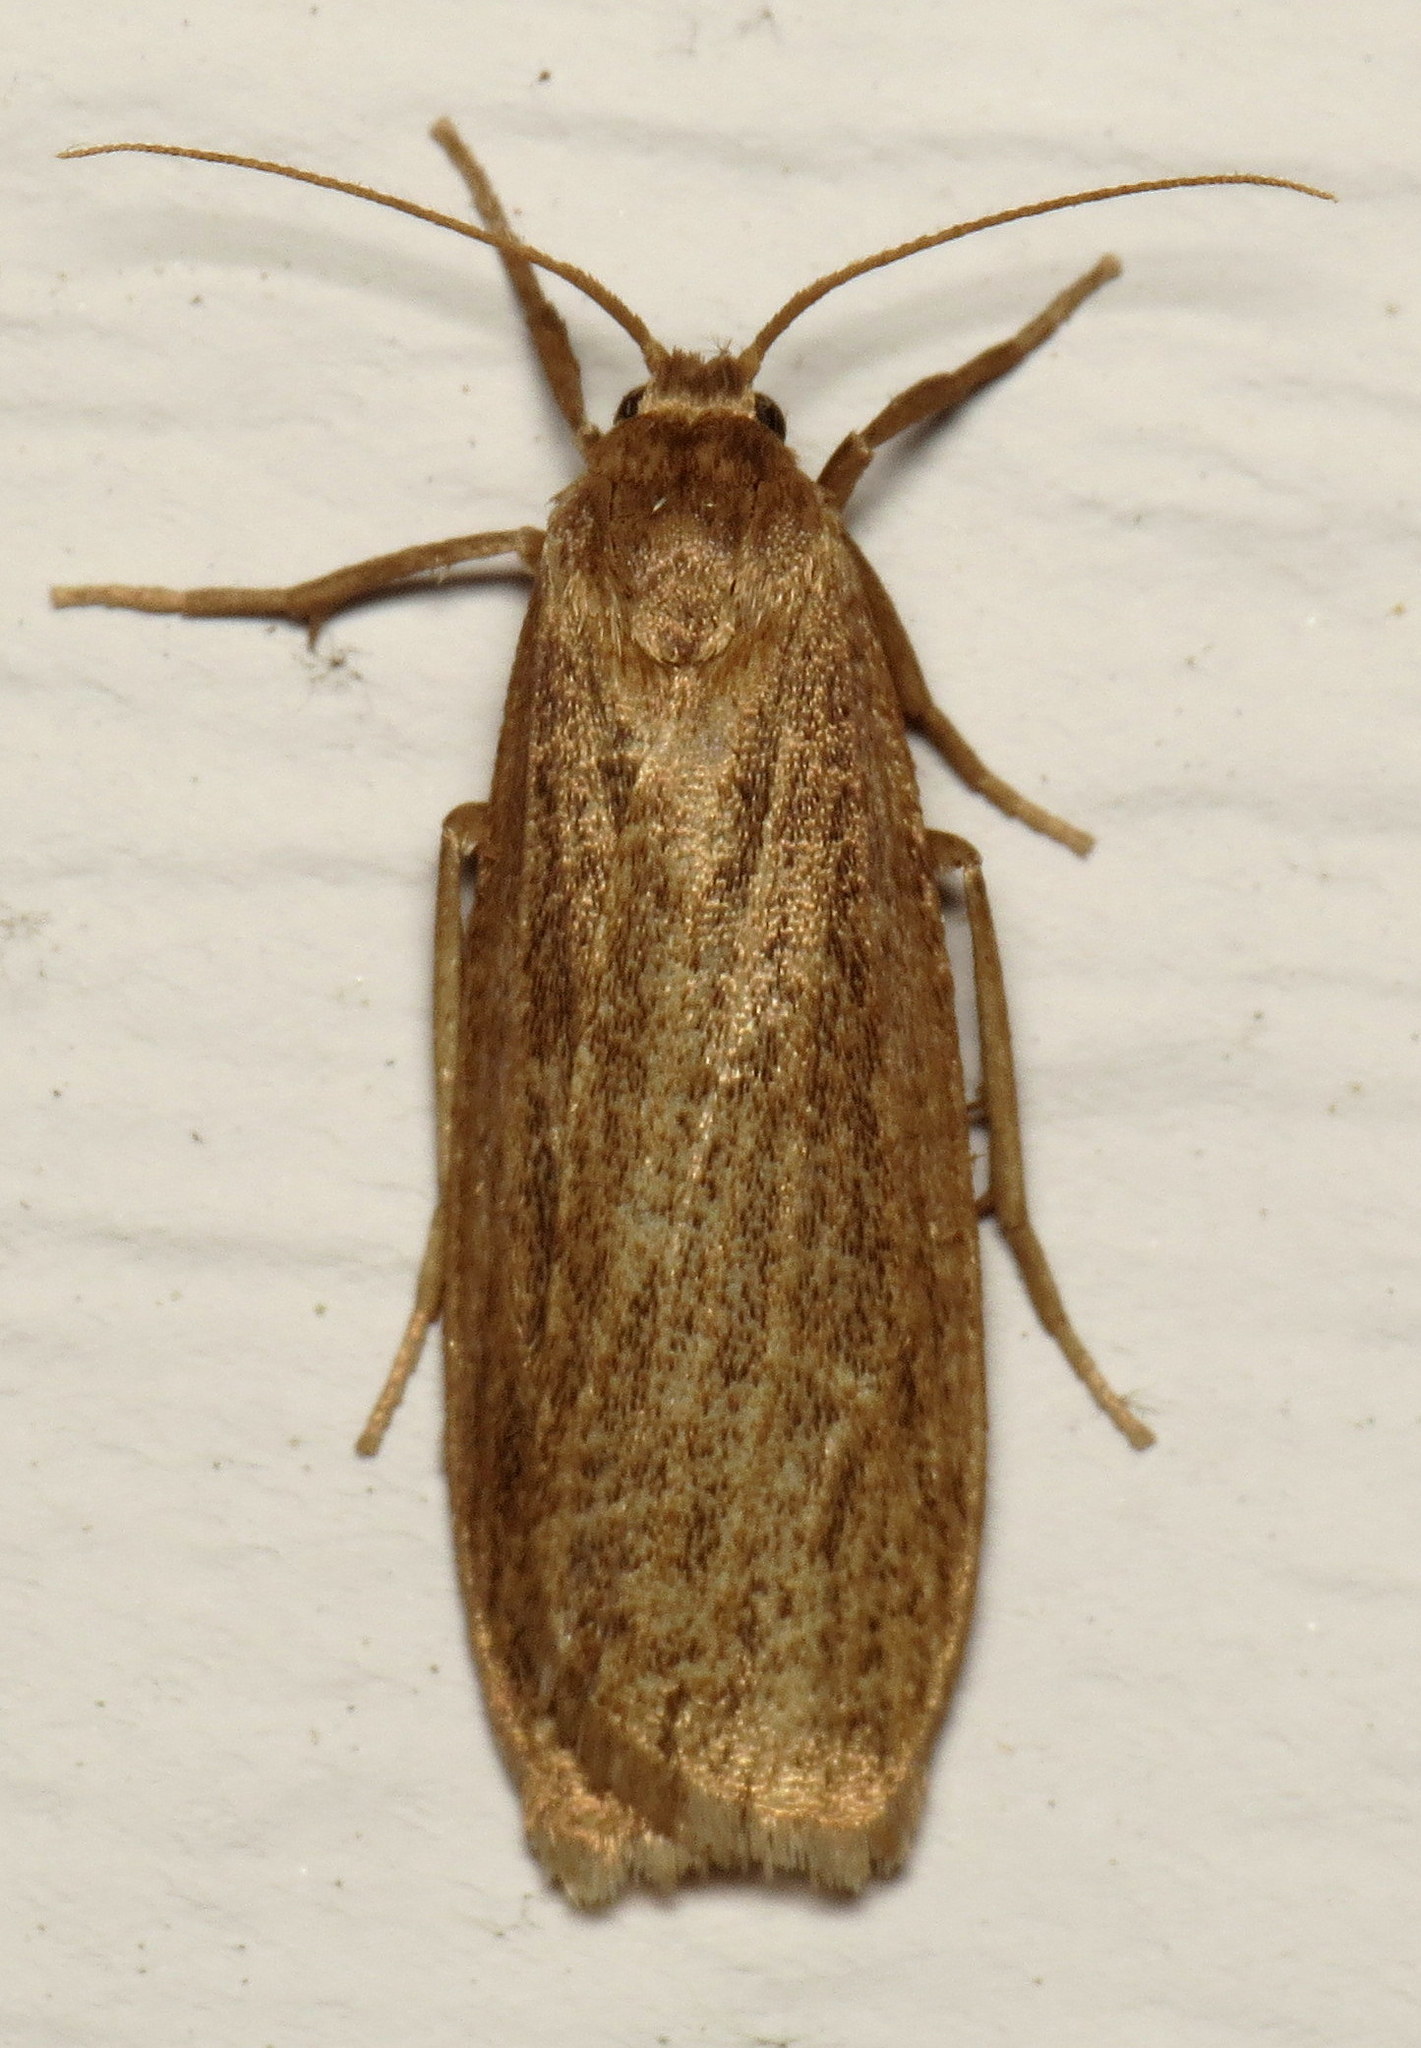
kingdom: Animalia
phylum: Arthropoda
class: Insecta
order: Lepidoptera
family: Erebidae
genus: Crambidia
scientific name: Crambidia pallida
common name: Pale lichen moth
